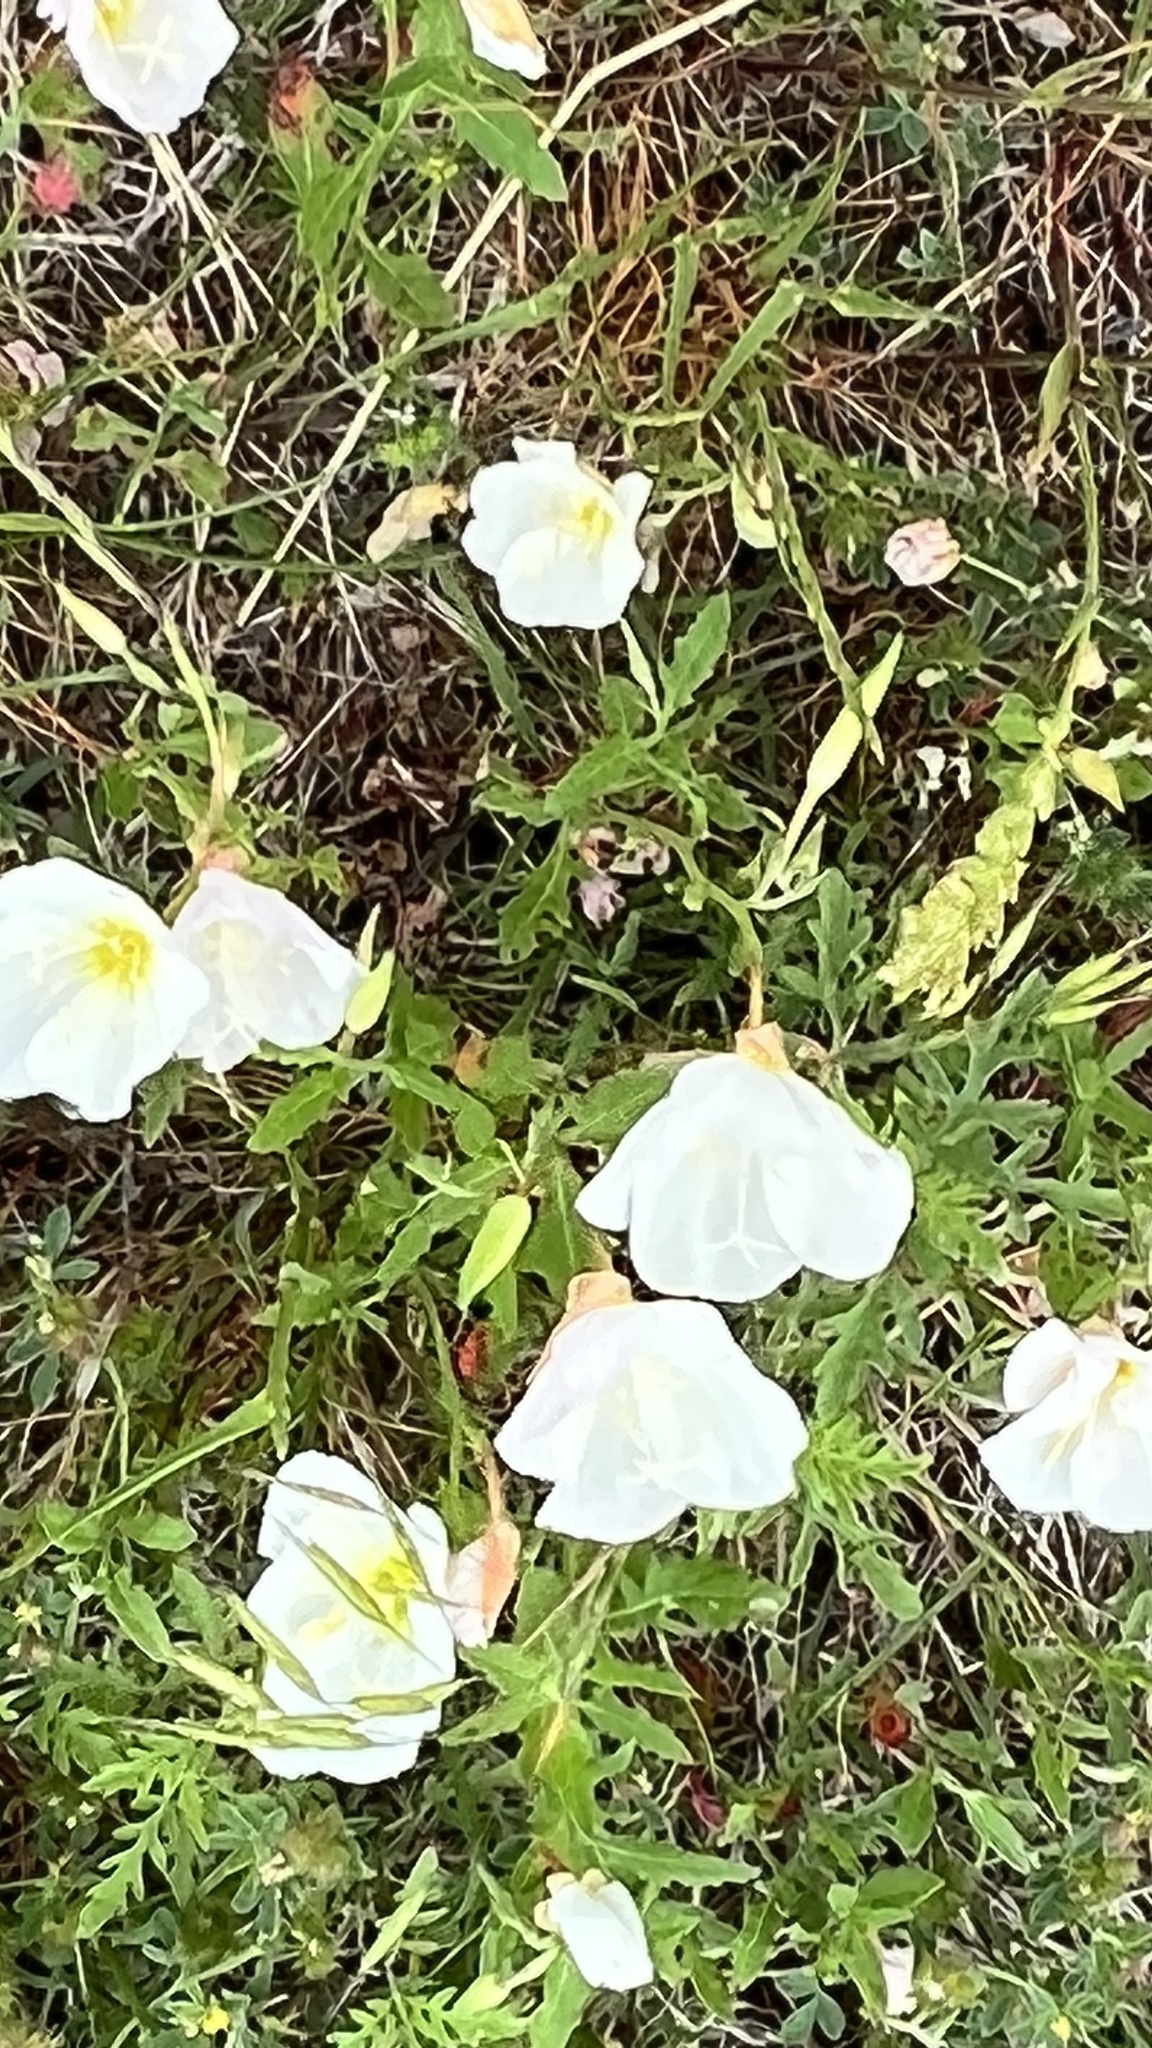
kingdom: Plantae
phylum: Tracheophyta
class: Magnoliopsida
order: Myrtales
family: Onagraceae
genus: Oenothera
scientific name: Oenothera speciosa
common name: White evening-primrose
